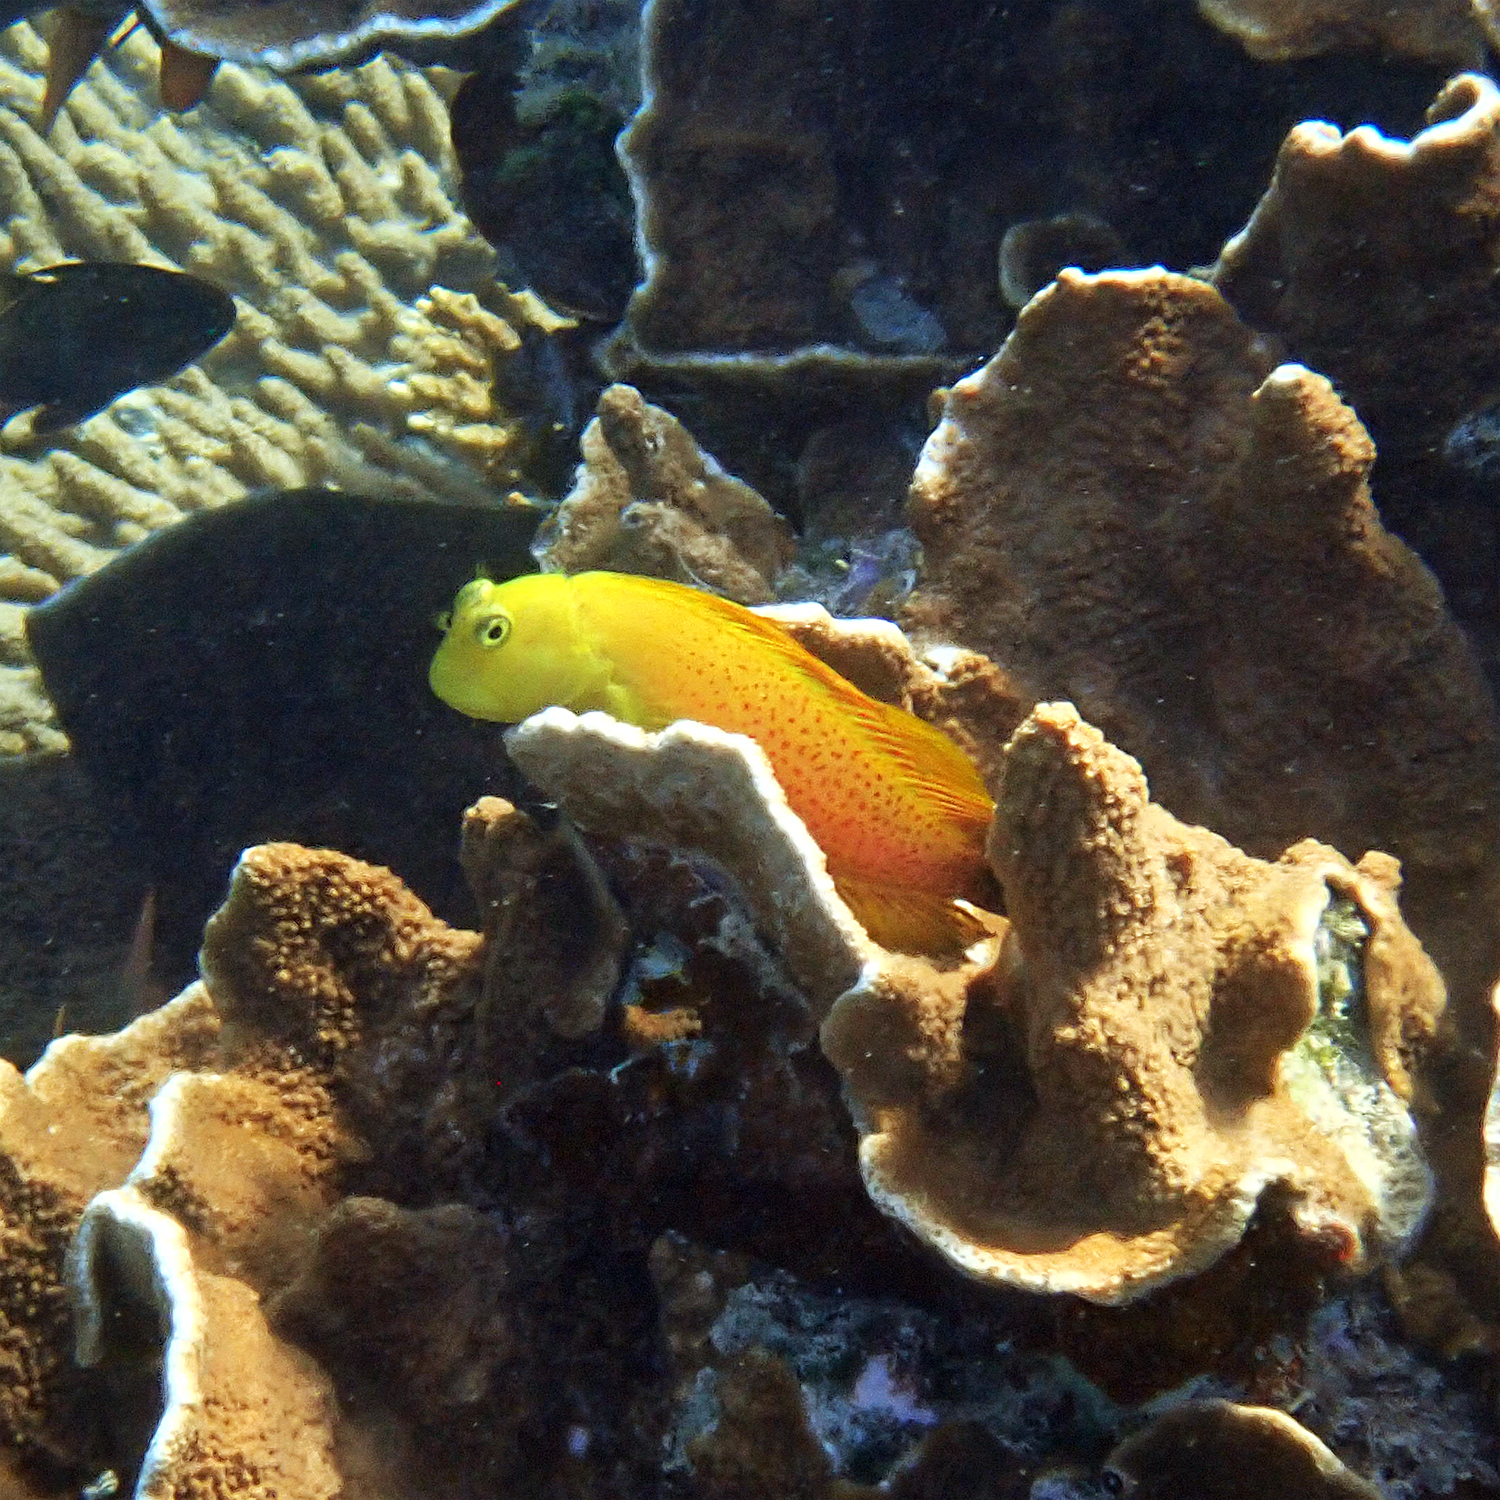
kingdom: Animalia
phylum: Chordata
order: Perciformes
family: Blenniidae
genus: Cirripectes
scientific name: Cirripectes chelomatus
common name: Lady musgrave blenny
